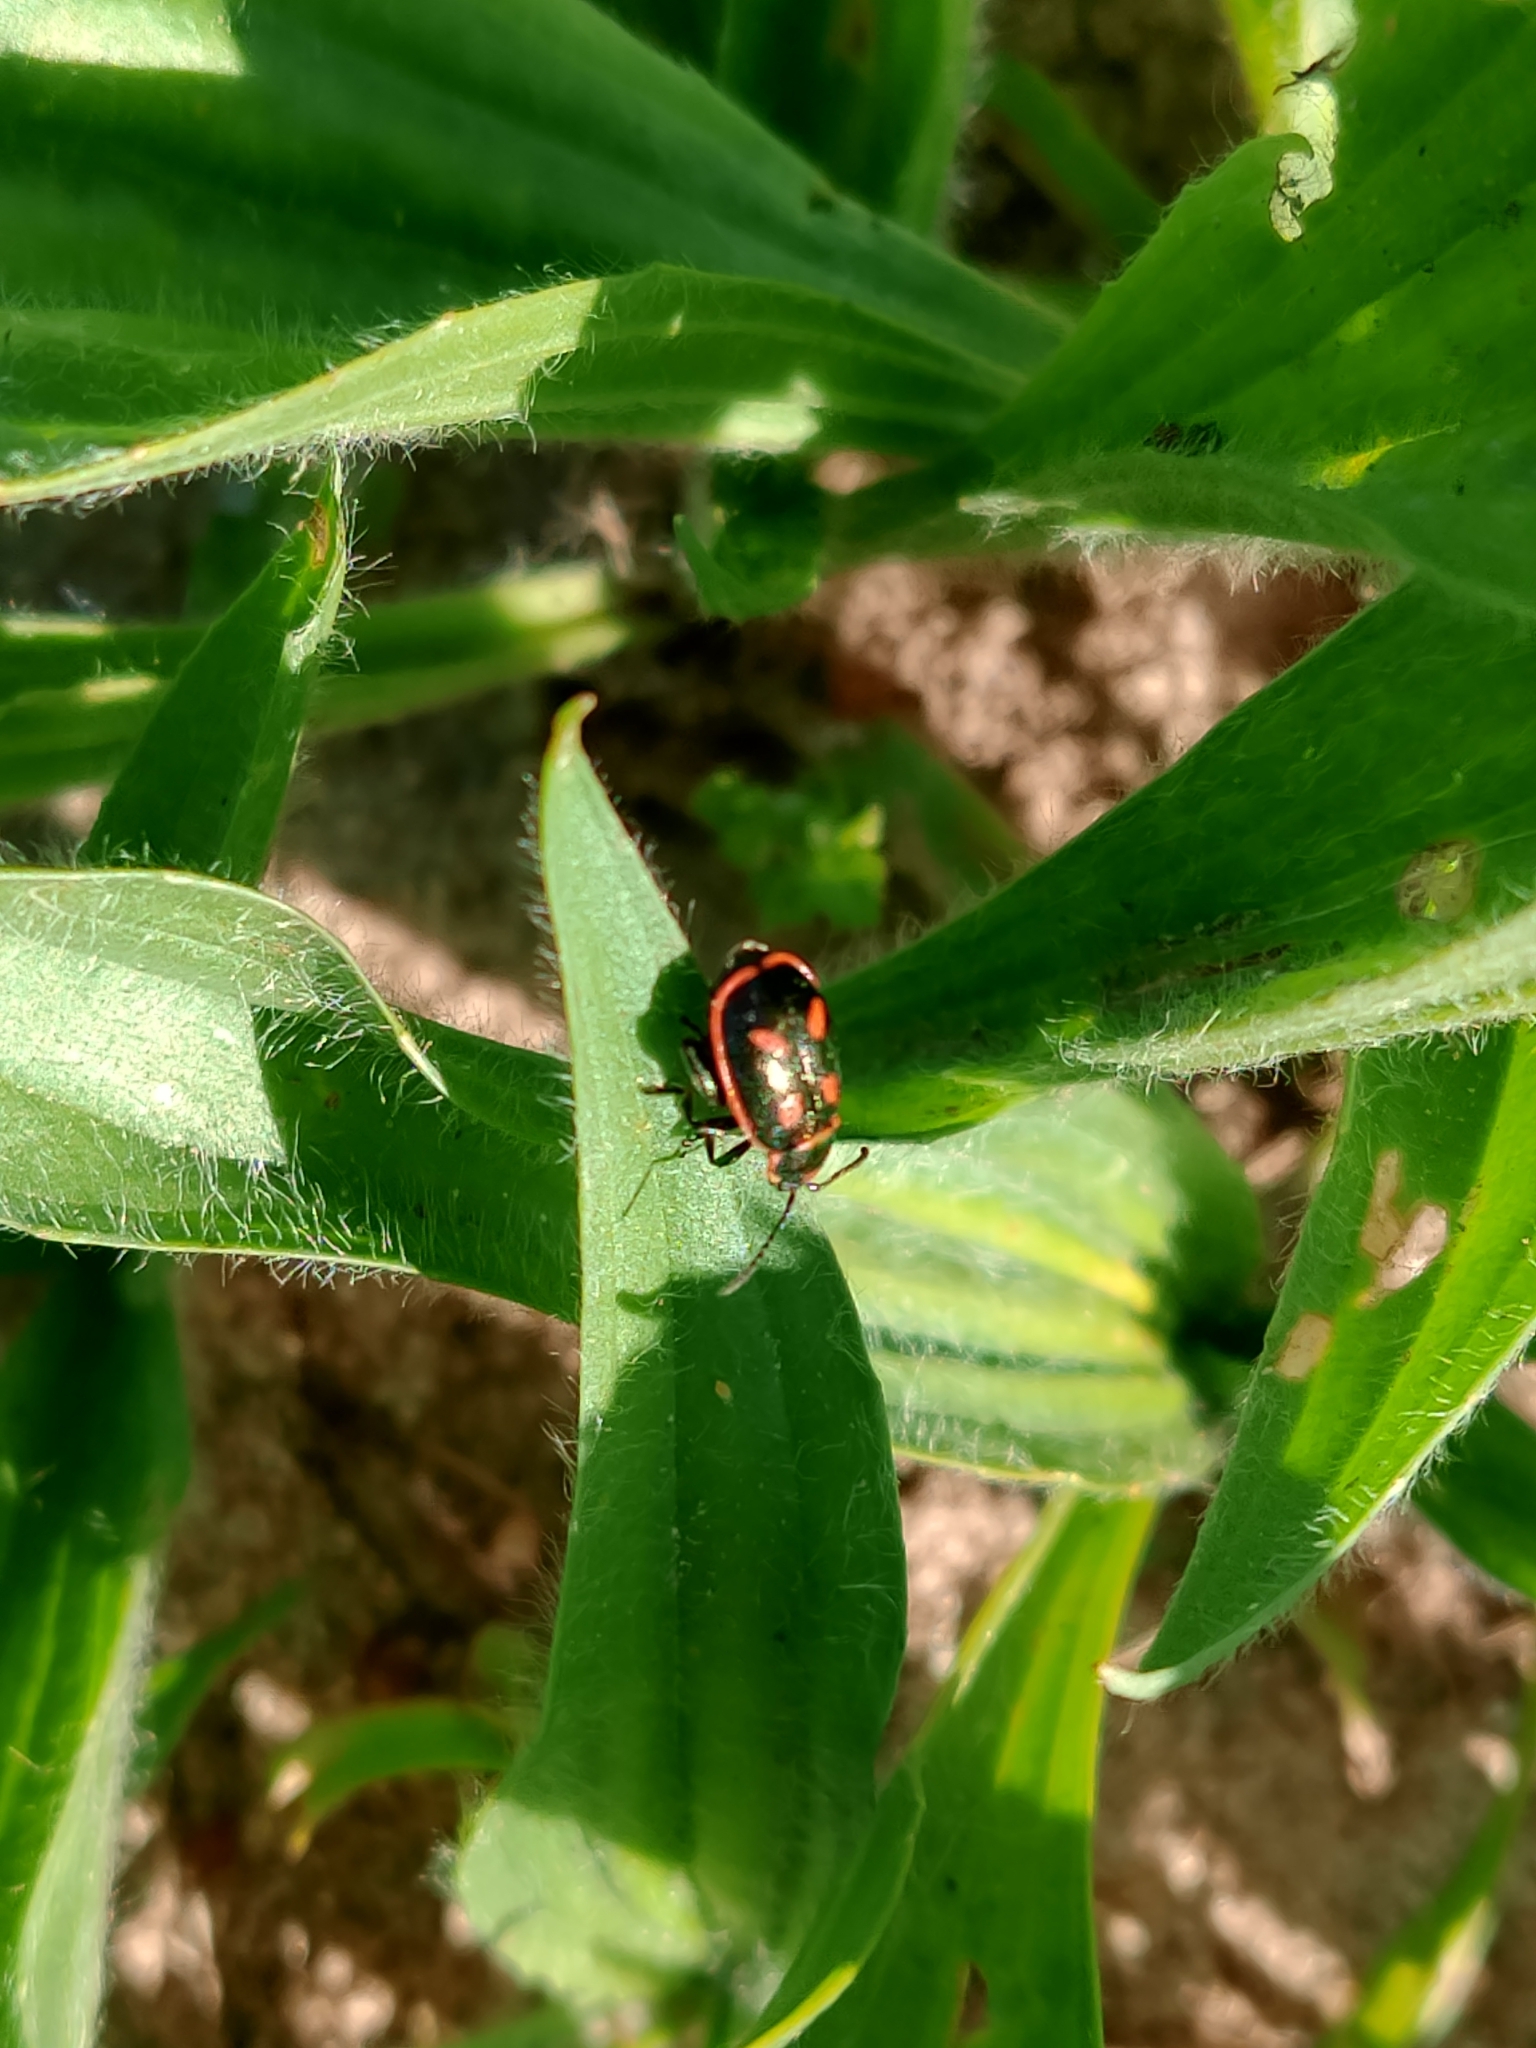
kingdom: Animalia
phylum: Arthropoda
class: Insecta
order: Coleoptera
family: Chrysomelidae
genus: Oedionychis
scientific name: Oedionychis cincta
